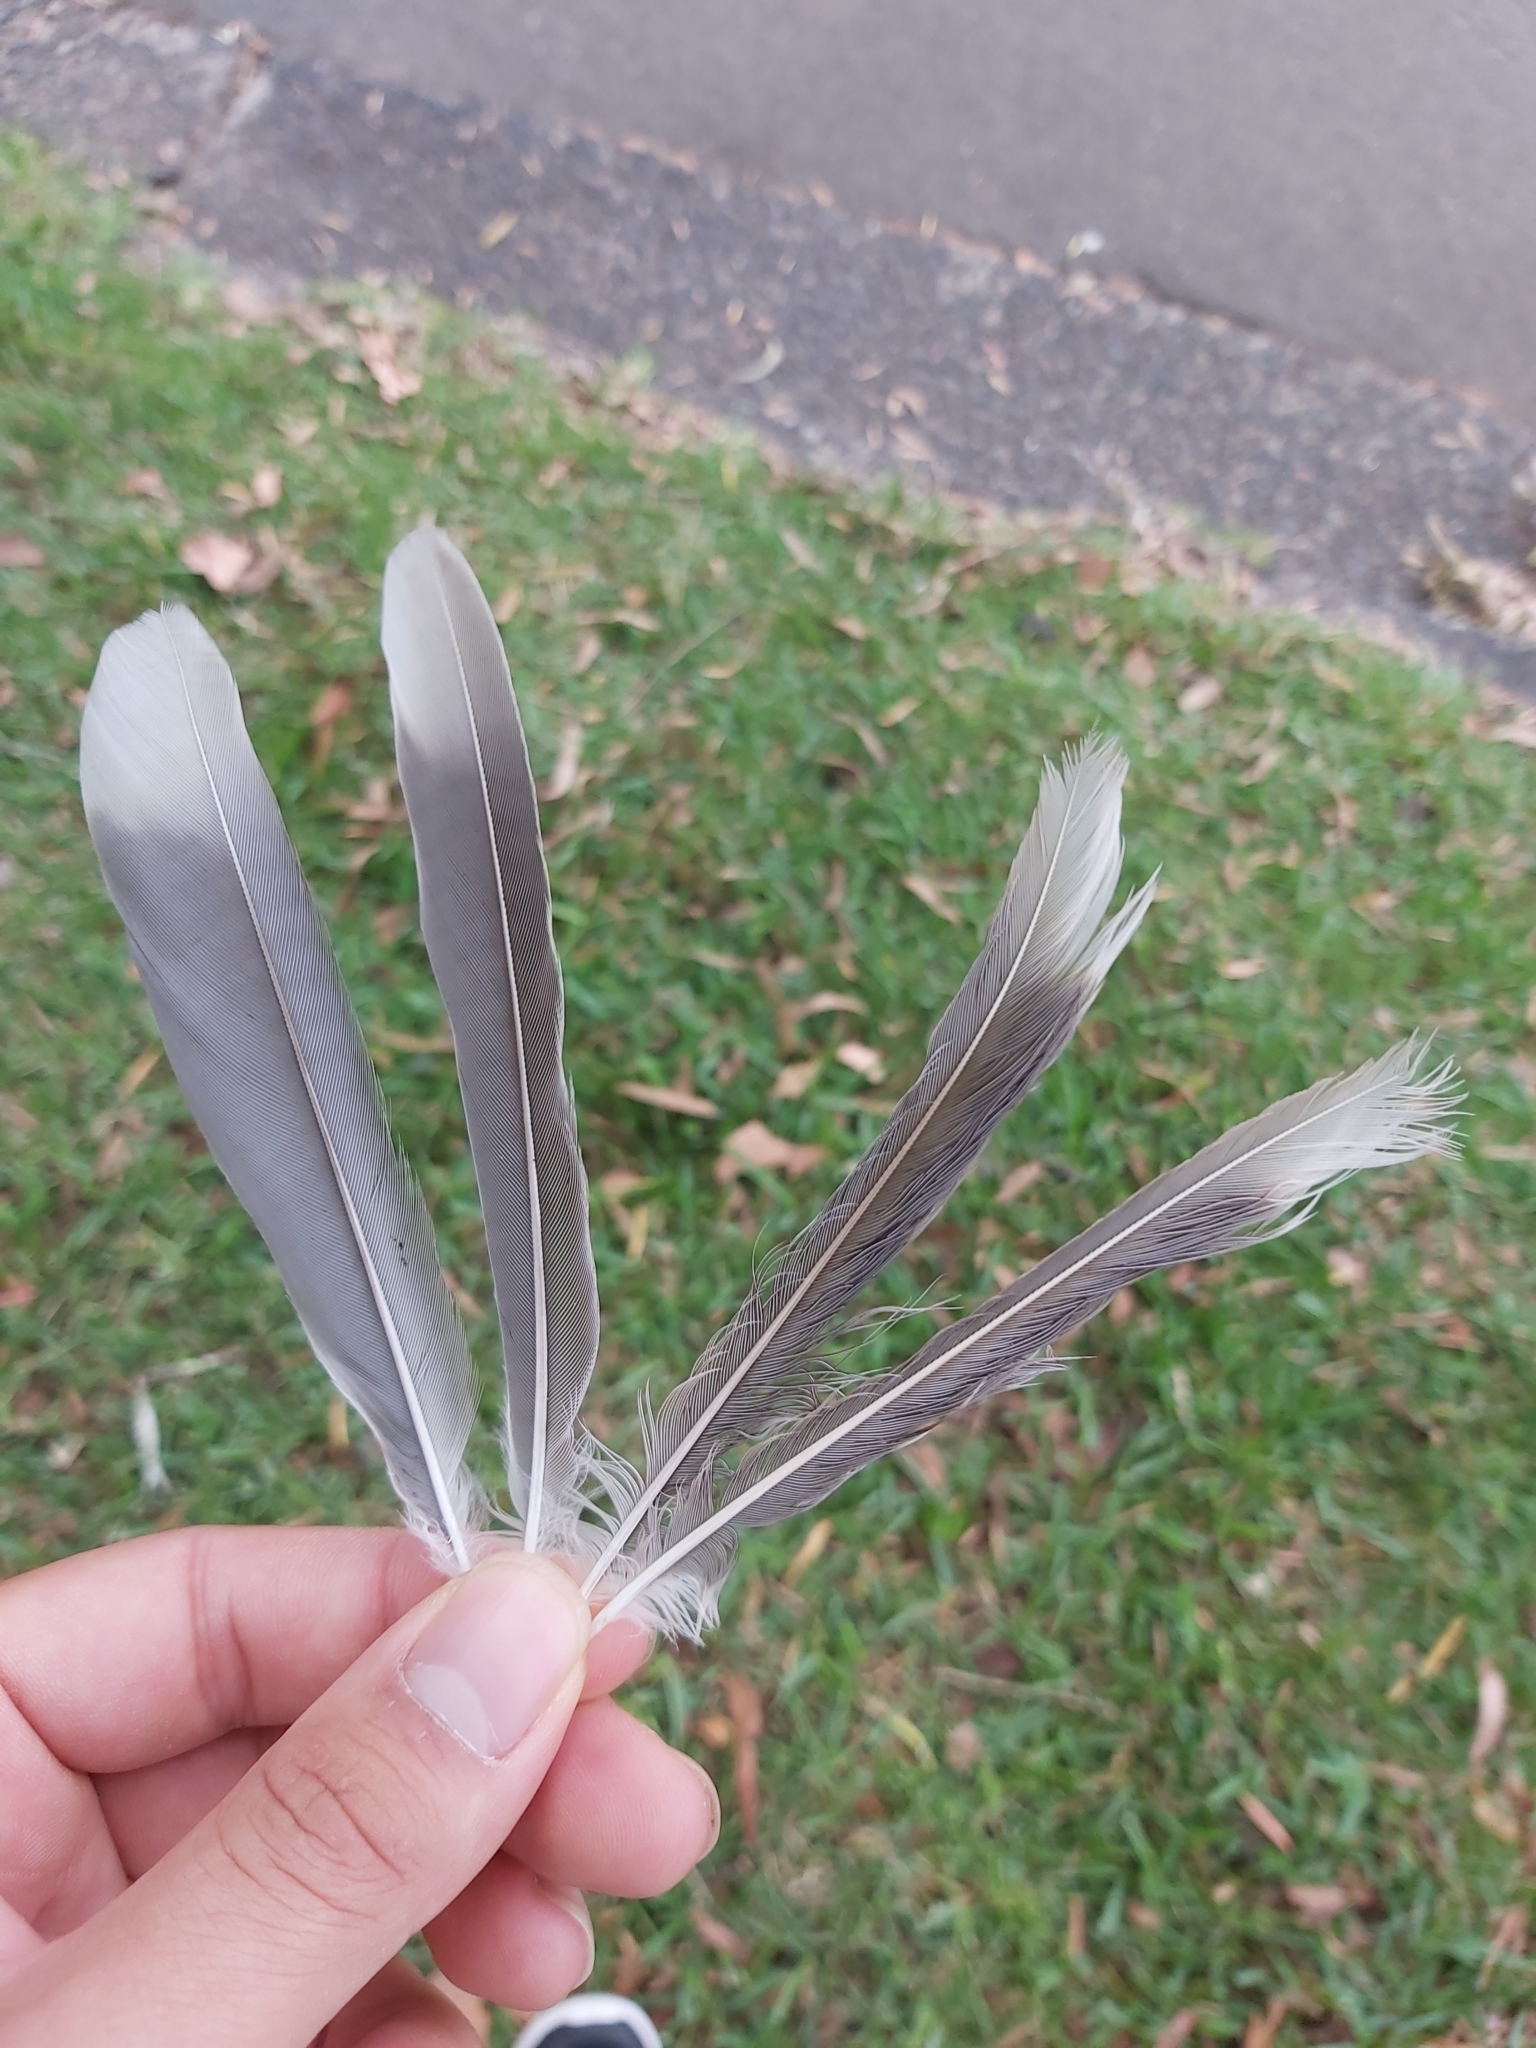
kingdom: Animalia
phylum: Chordata
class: Aves
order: Passeriformes
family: Meliphagidae
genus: Manorina
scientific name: Manorina melanocephala
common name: Noisy miner
